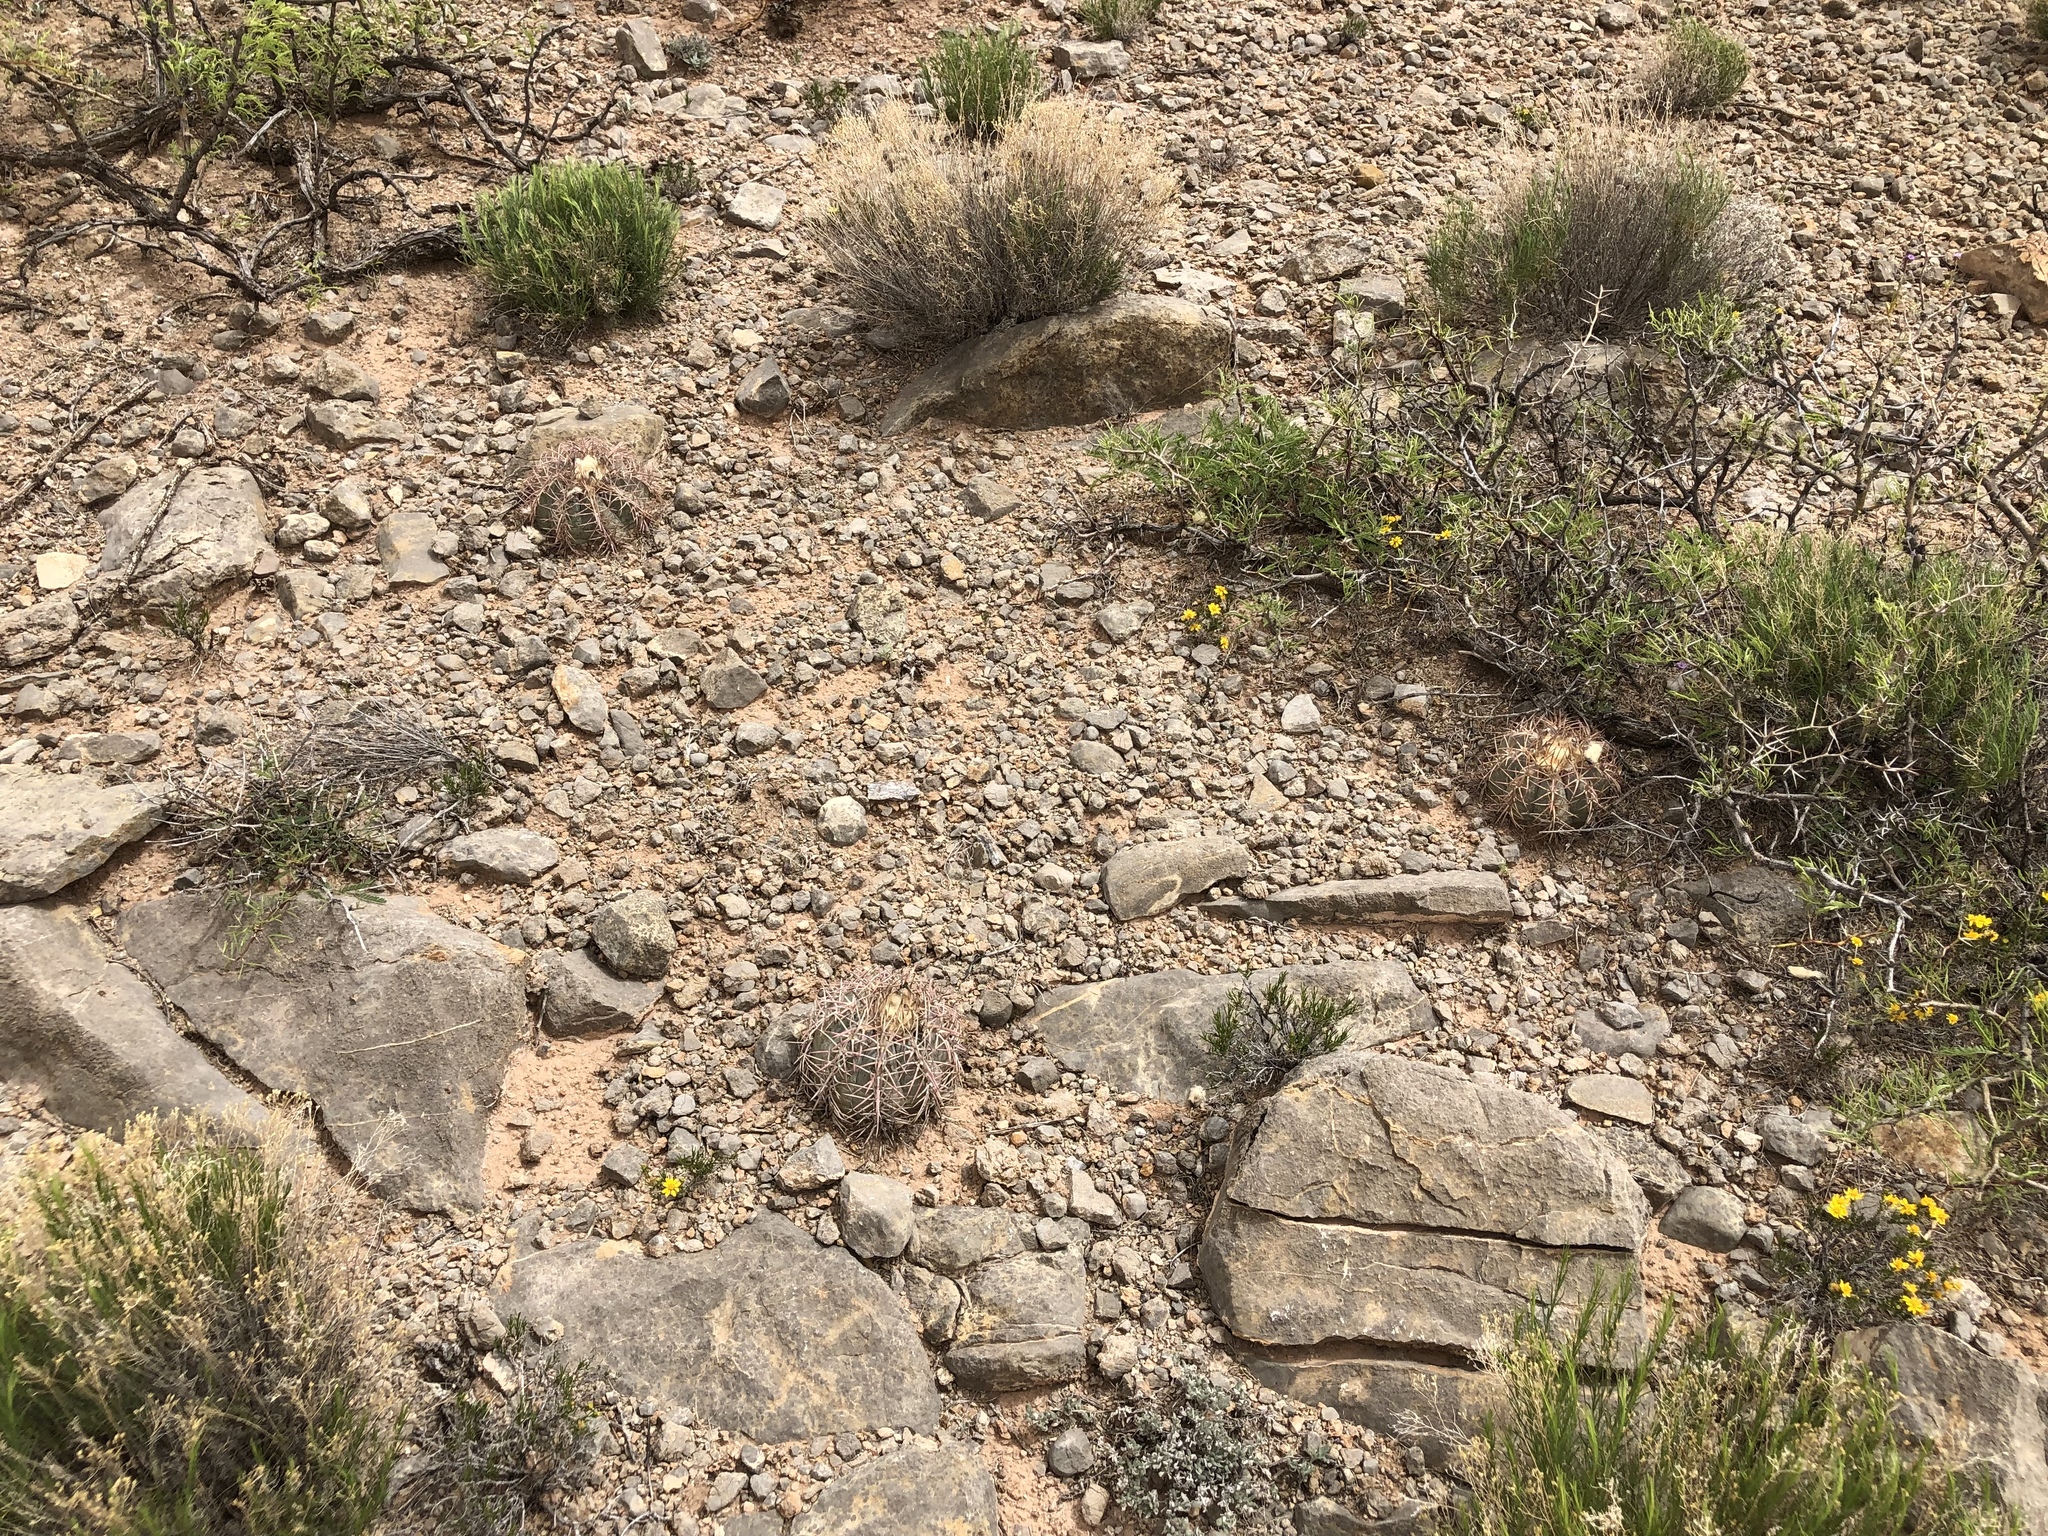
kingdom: Plantae
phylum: Tracheophyta
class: Magnoliopsida
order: Caryophyllales
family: Cactaceae
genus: Echinocactus
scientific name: Echinocactus horizonthalonius
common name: Devilshead
